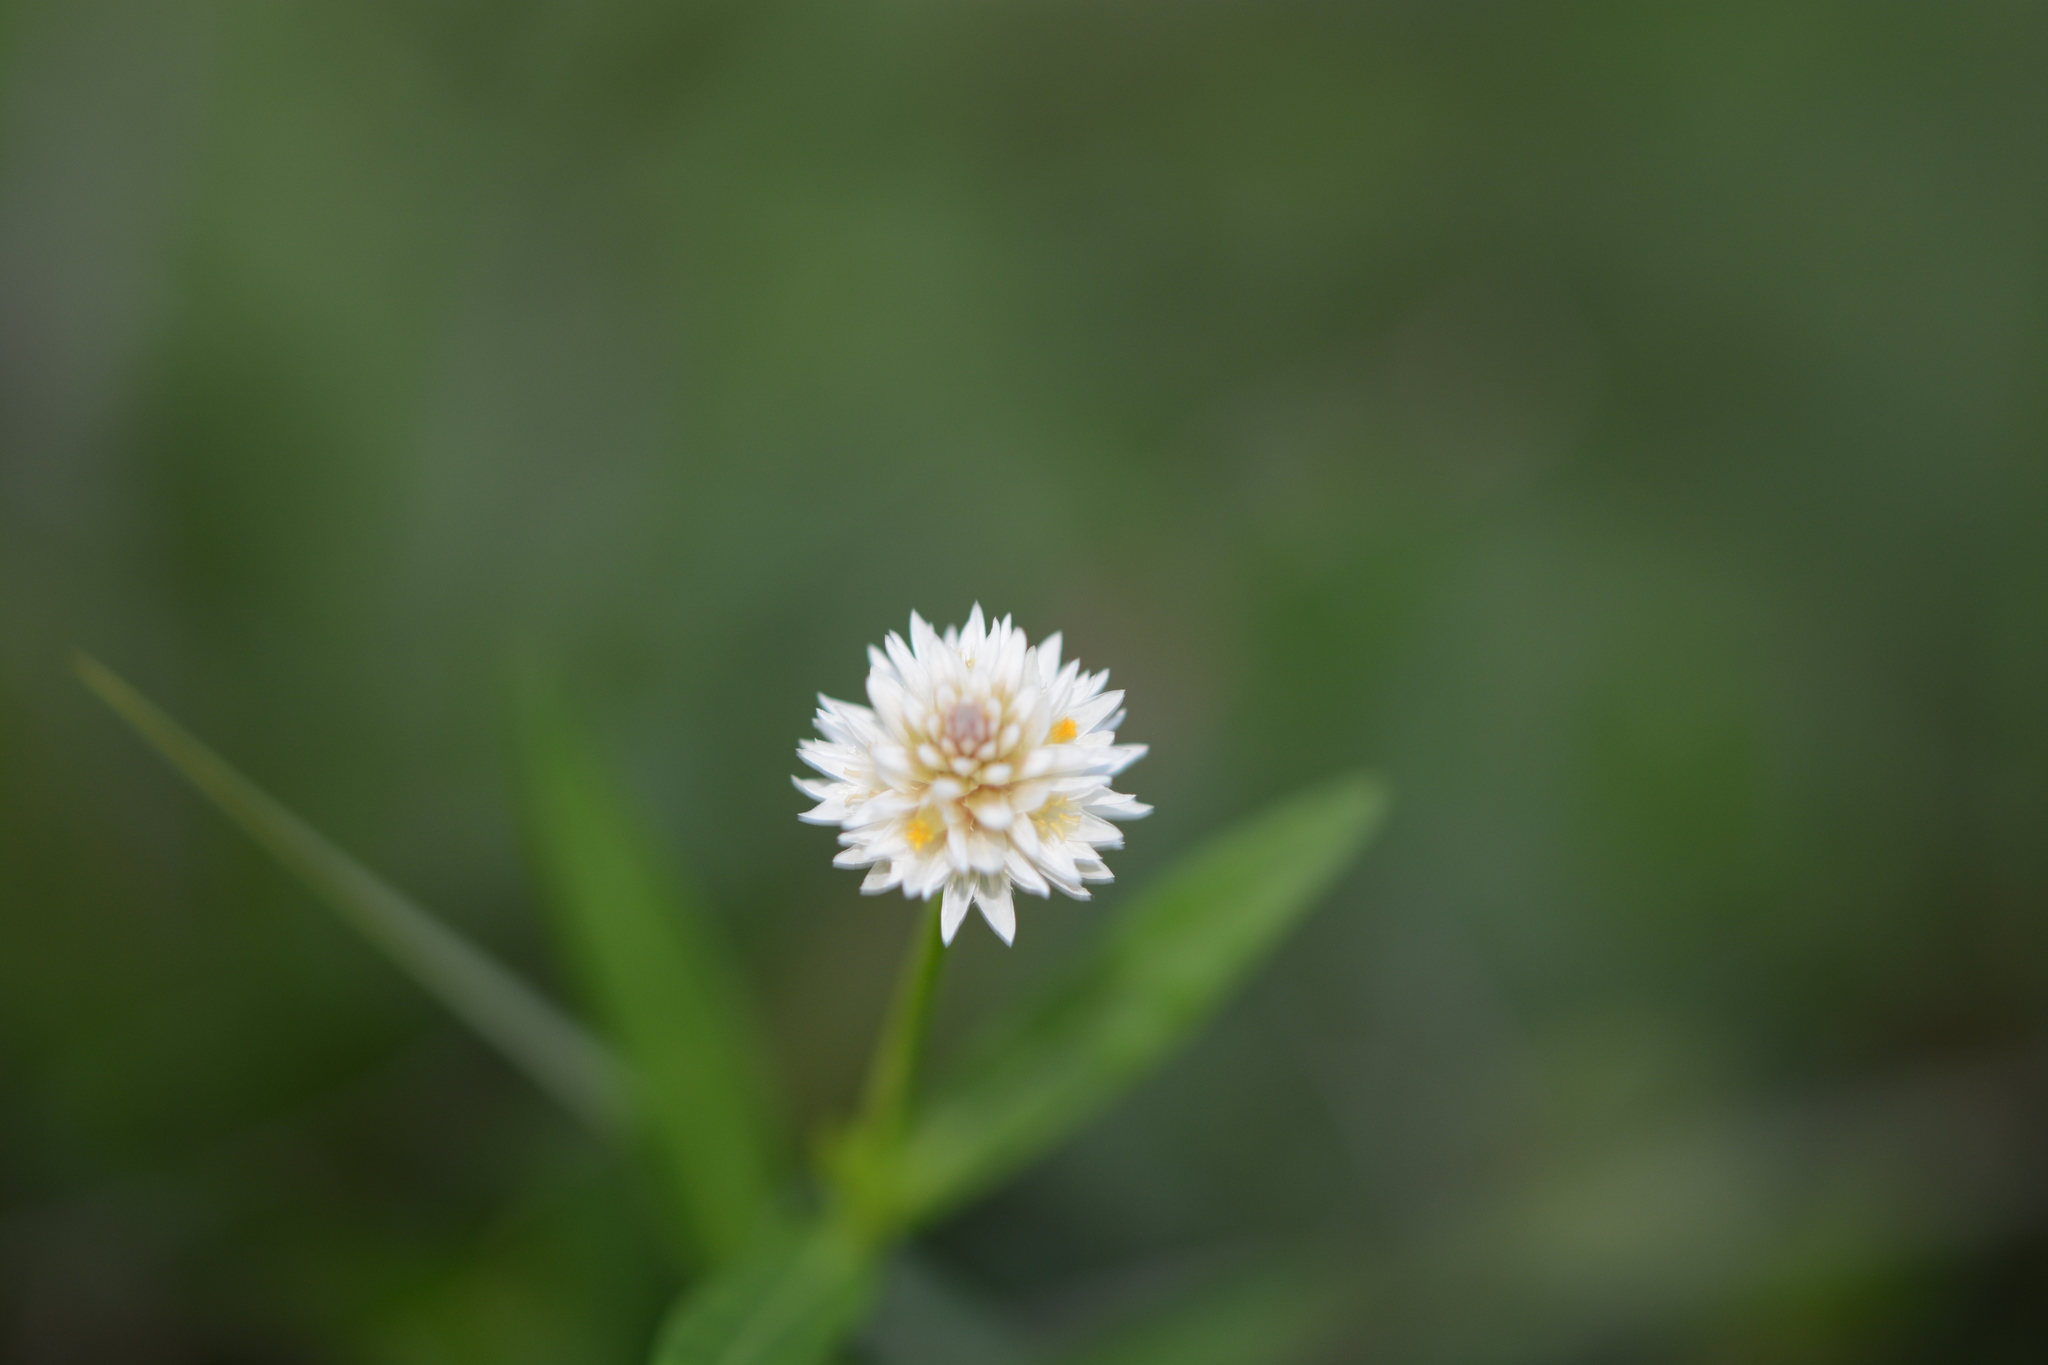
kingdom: Plantae
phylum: Tracheophyta
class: Magnoliopsida
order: Caryophyllales
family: Amaranthaceae
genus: Alternanthera
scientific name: Alternanthera philoxeroides
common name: Alligatorweed
